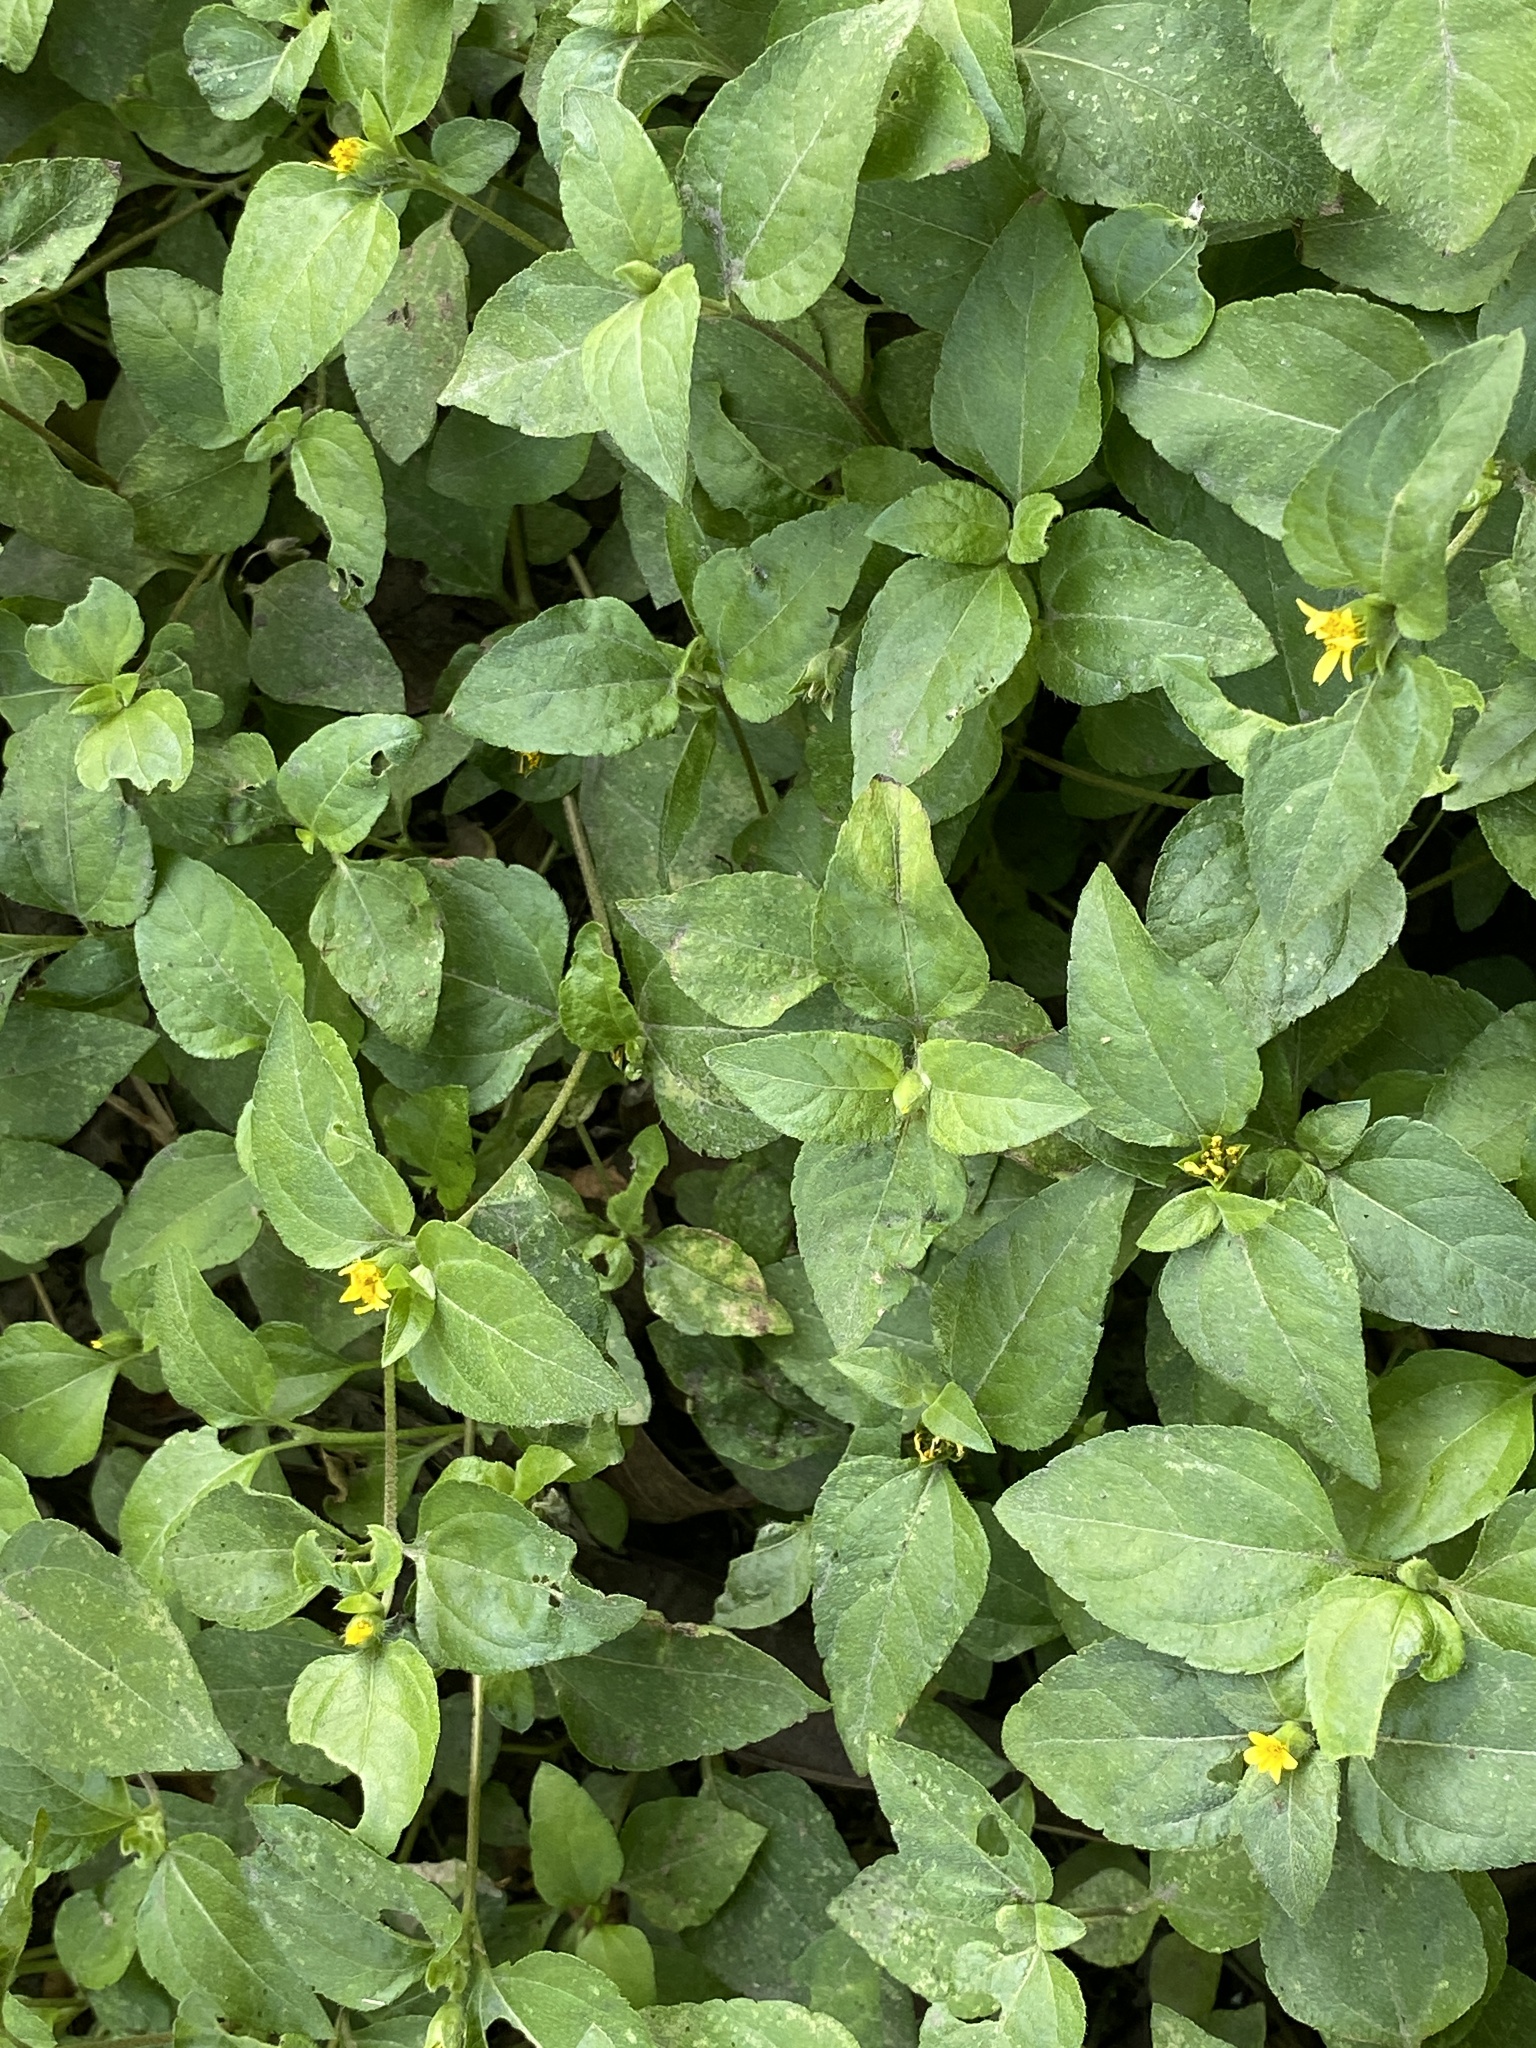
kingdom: Plantae
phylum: Tracheophyta
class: Magnoliopsida
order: Asterales
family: Asteraceae
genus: Calyptocarpus
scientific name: Calyptocarpus vialis
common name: Straggler daisy
